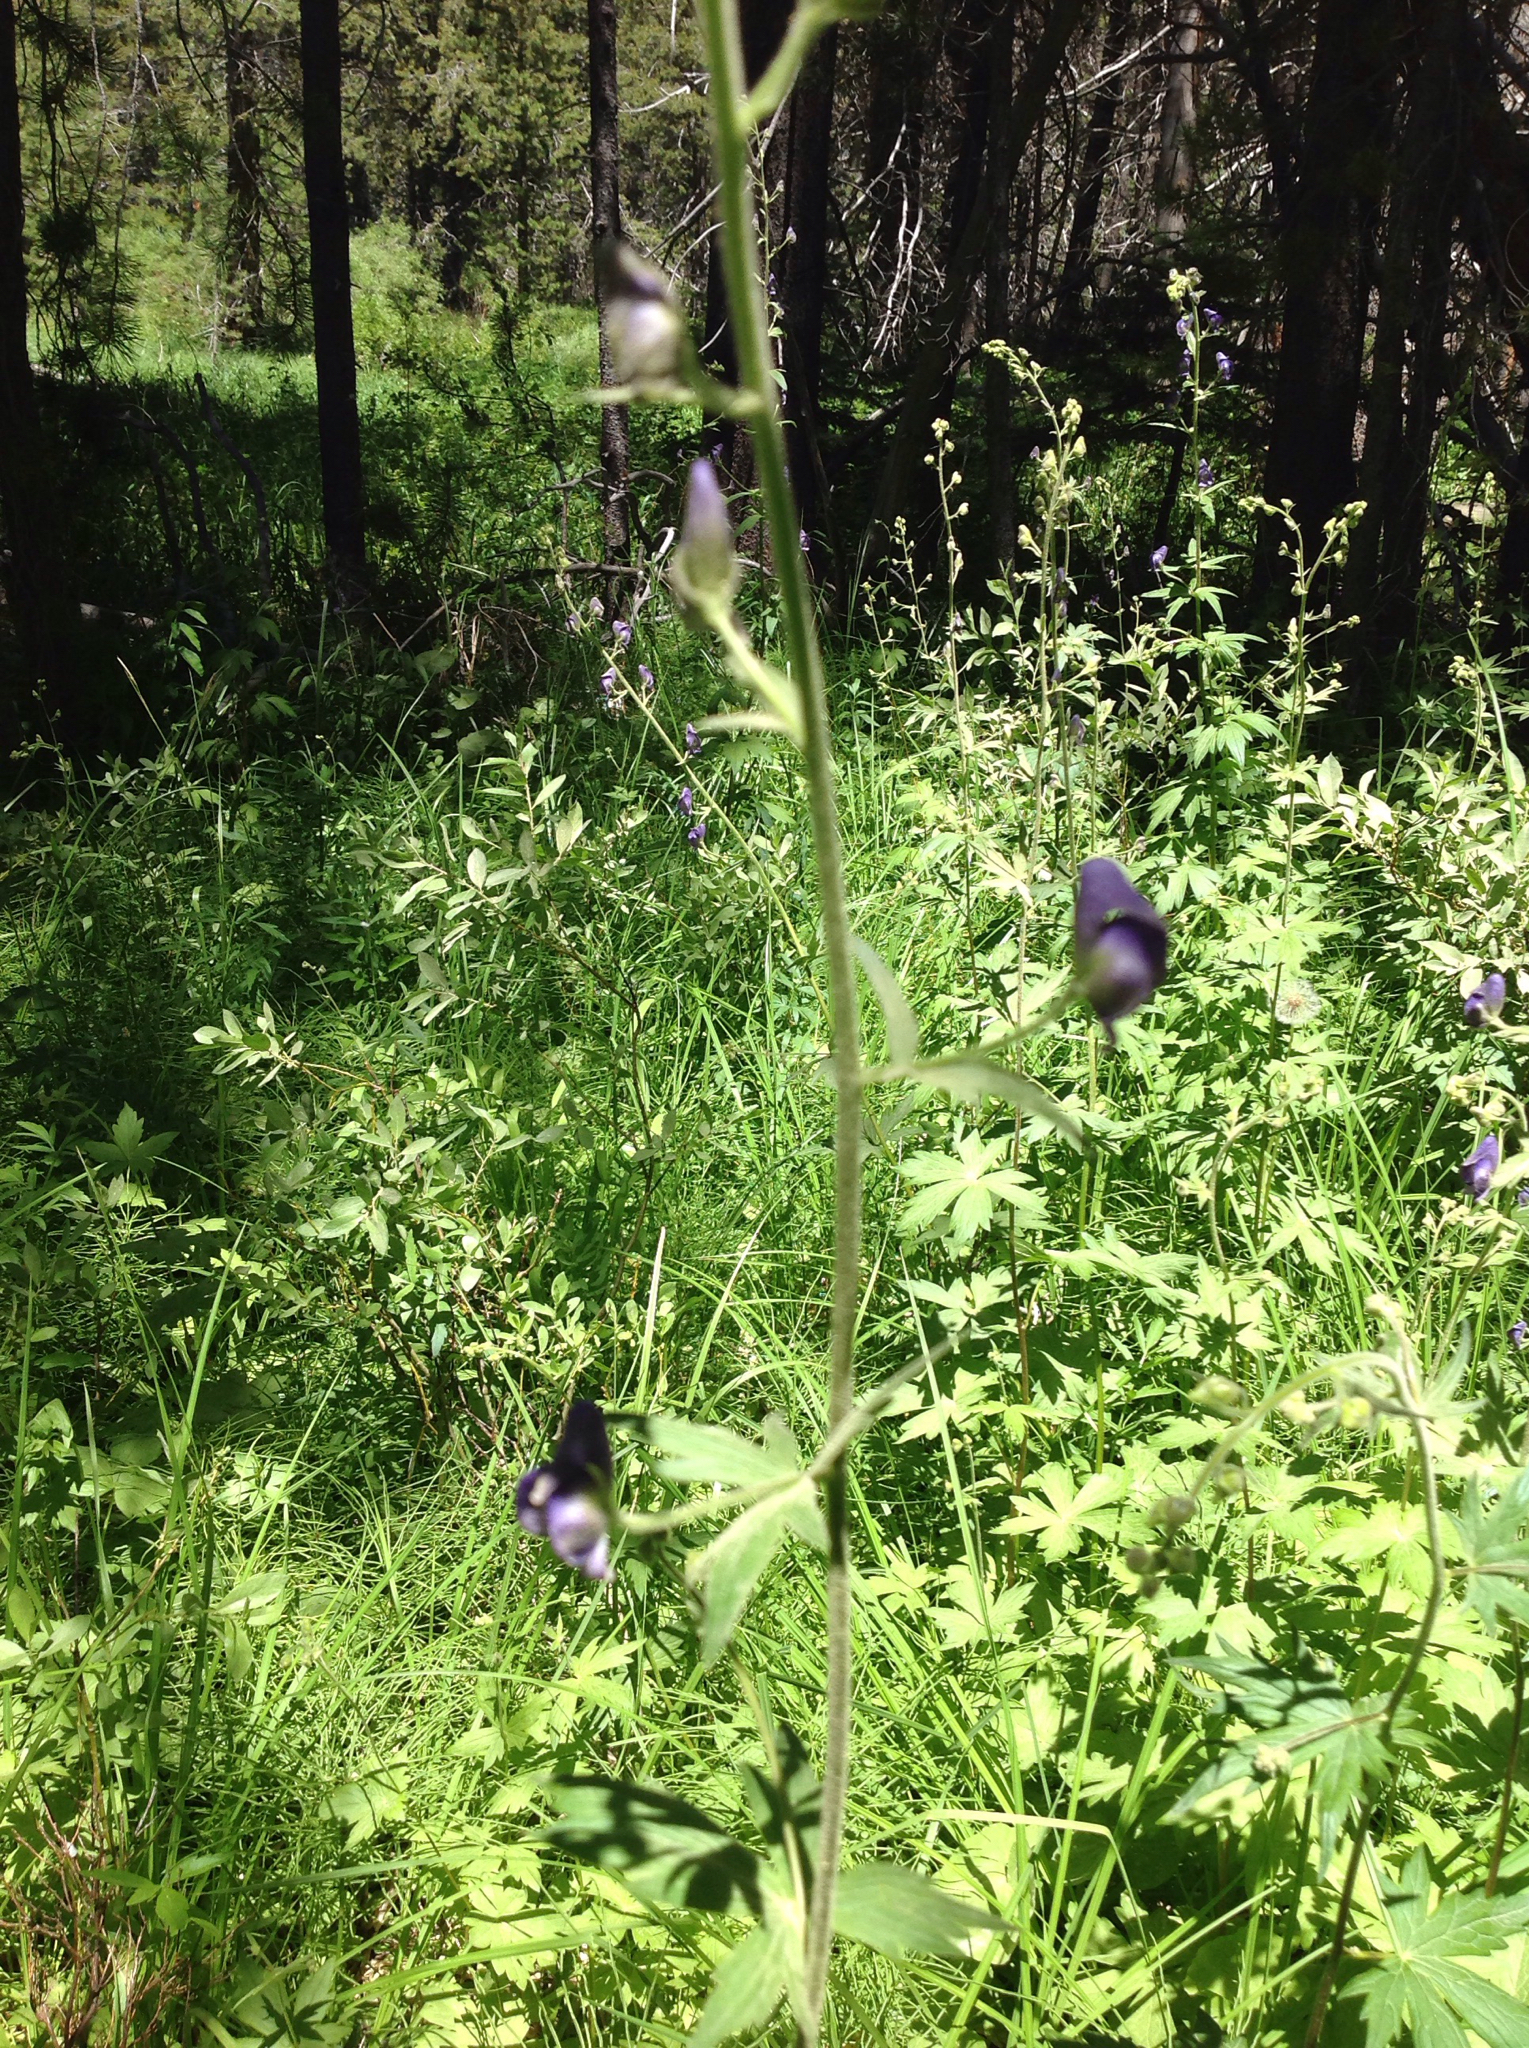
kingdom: Plantae
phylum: Tracheophyta
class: Magnoliopsida
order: Ranunculales
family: Ranunculaceae
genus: Aconitum
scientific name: Aconitum columbianum
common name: Columbia aconite
